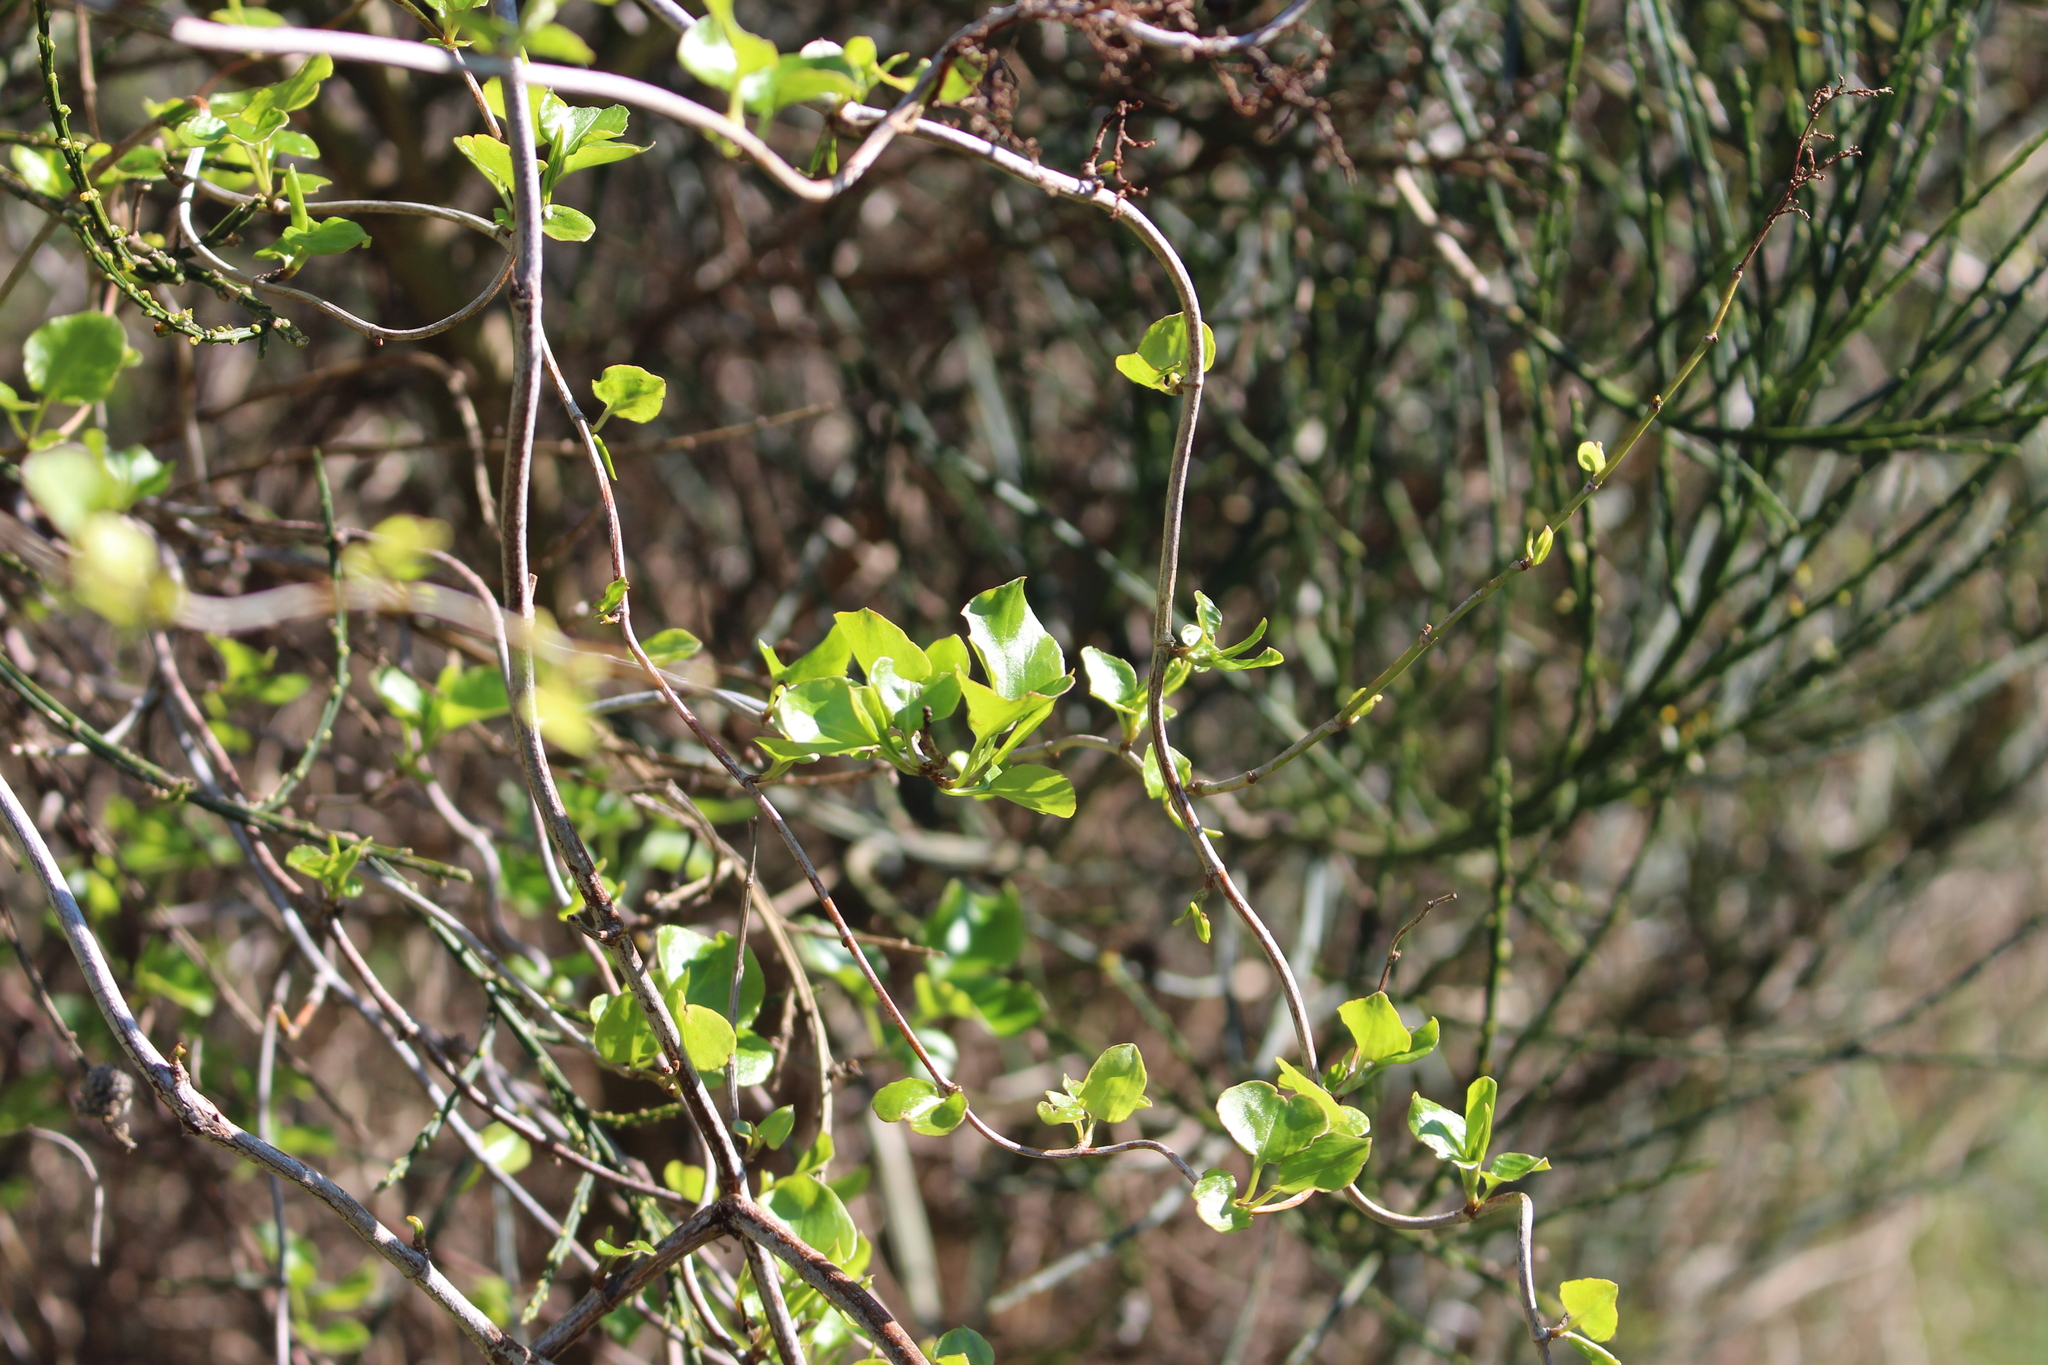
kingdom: Plantae
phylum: Tracheophyta
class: Magnoliopsida
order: Caryophyllales
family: Polygonaceae
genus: Muehlenbeckia
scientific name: Muehlenbeckia australis
